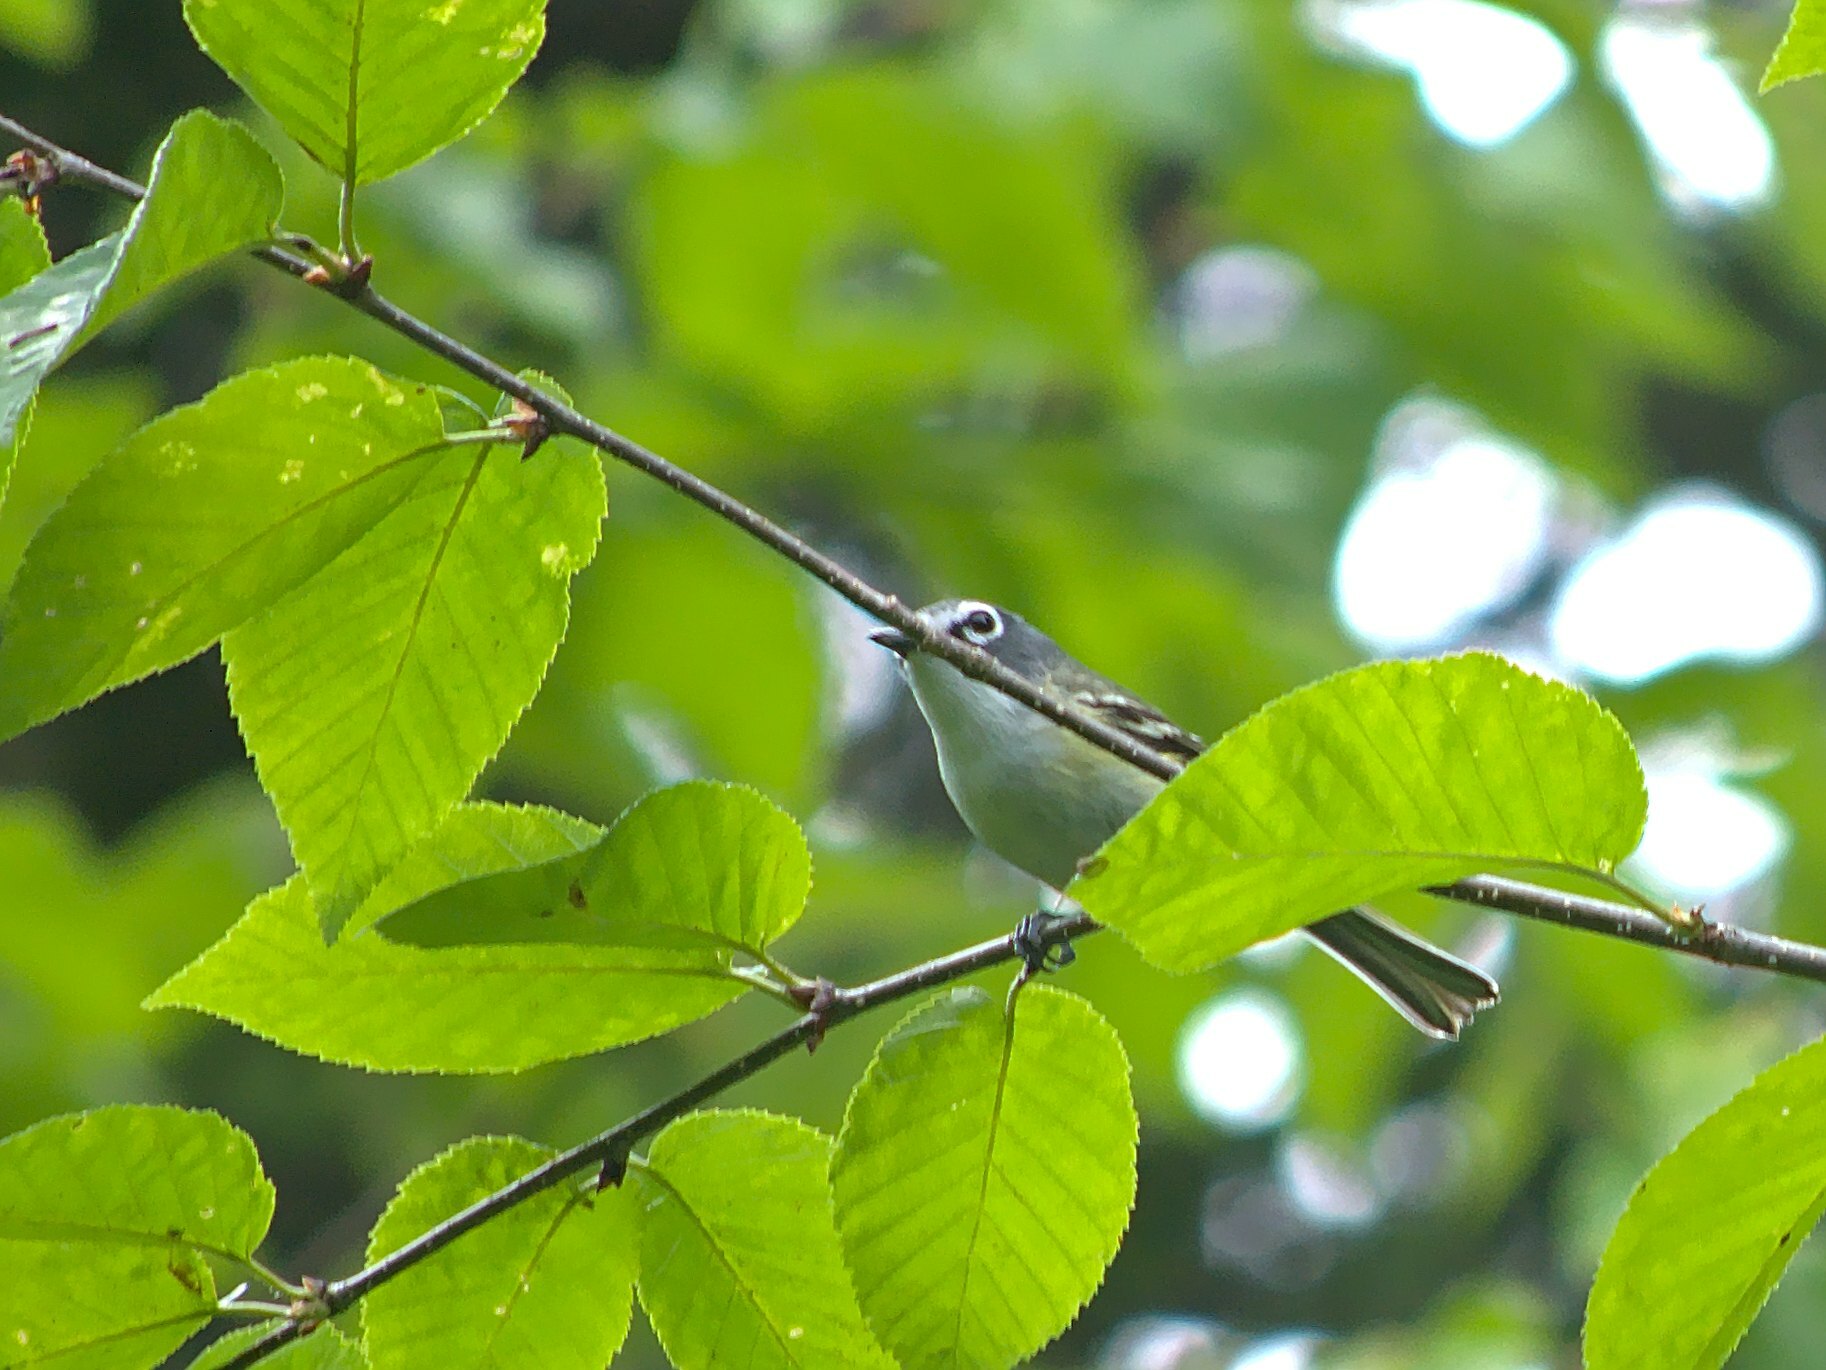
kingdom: Animalia
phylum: Chordata
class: Aves
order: Passeriformes
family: Vireonidae
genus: Vireo
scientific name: Vireo solitarius
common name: Blue-headed vireo
